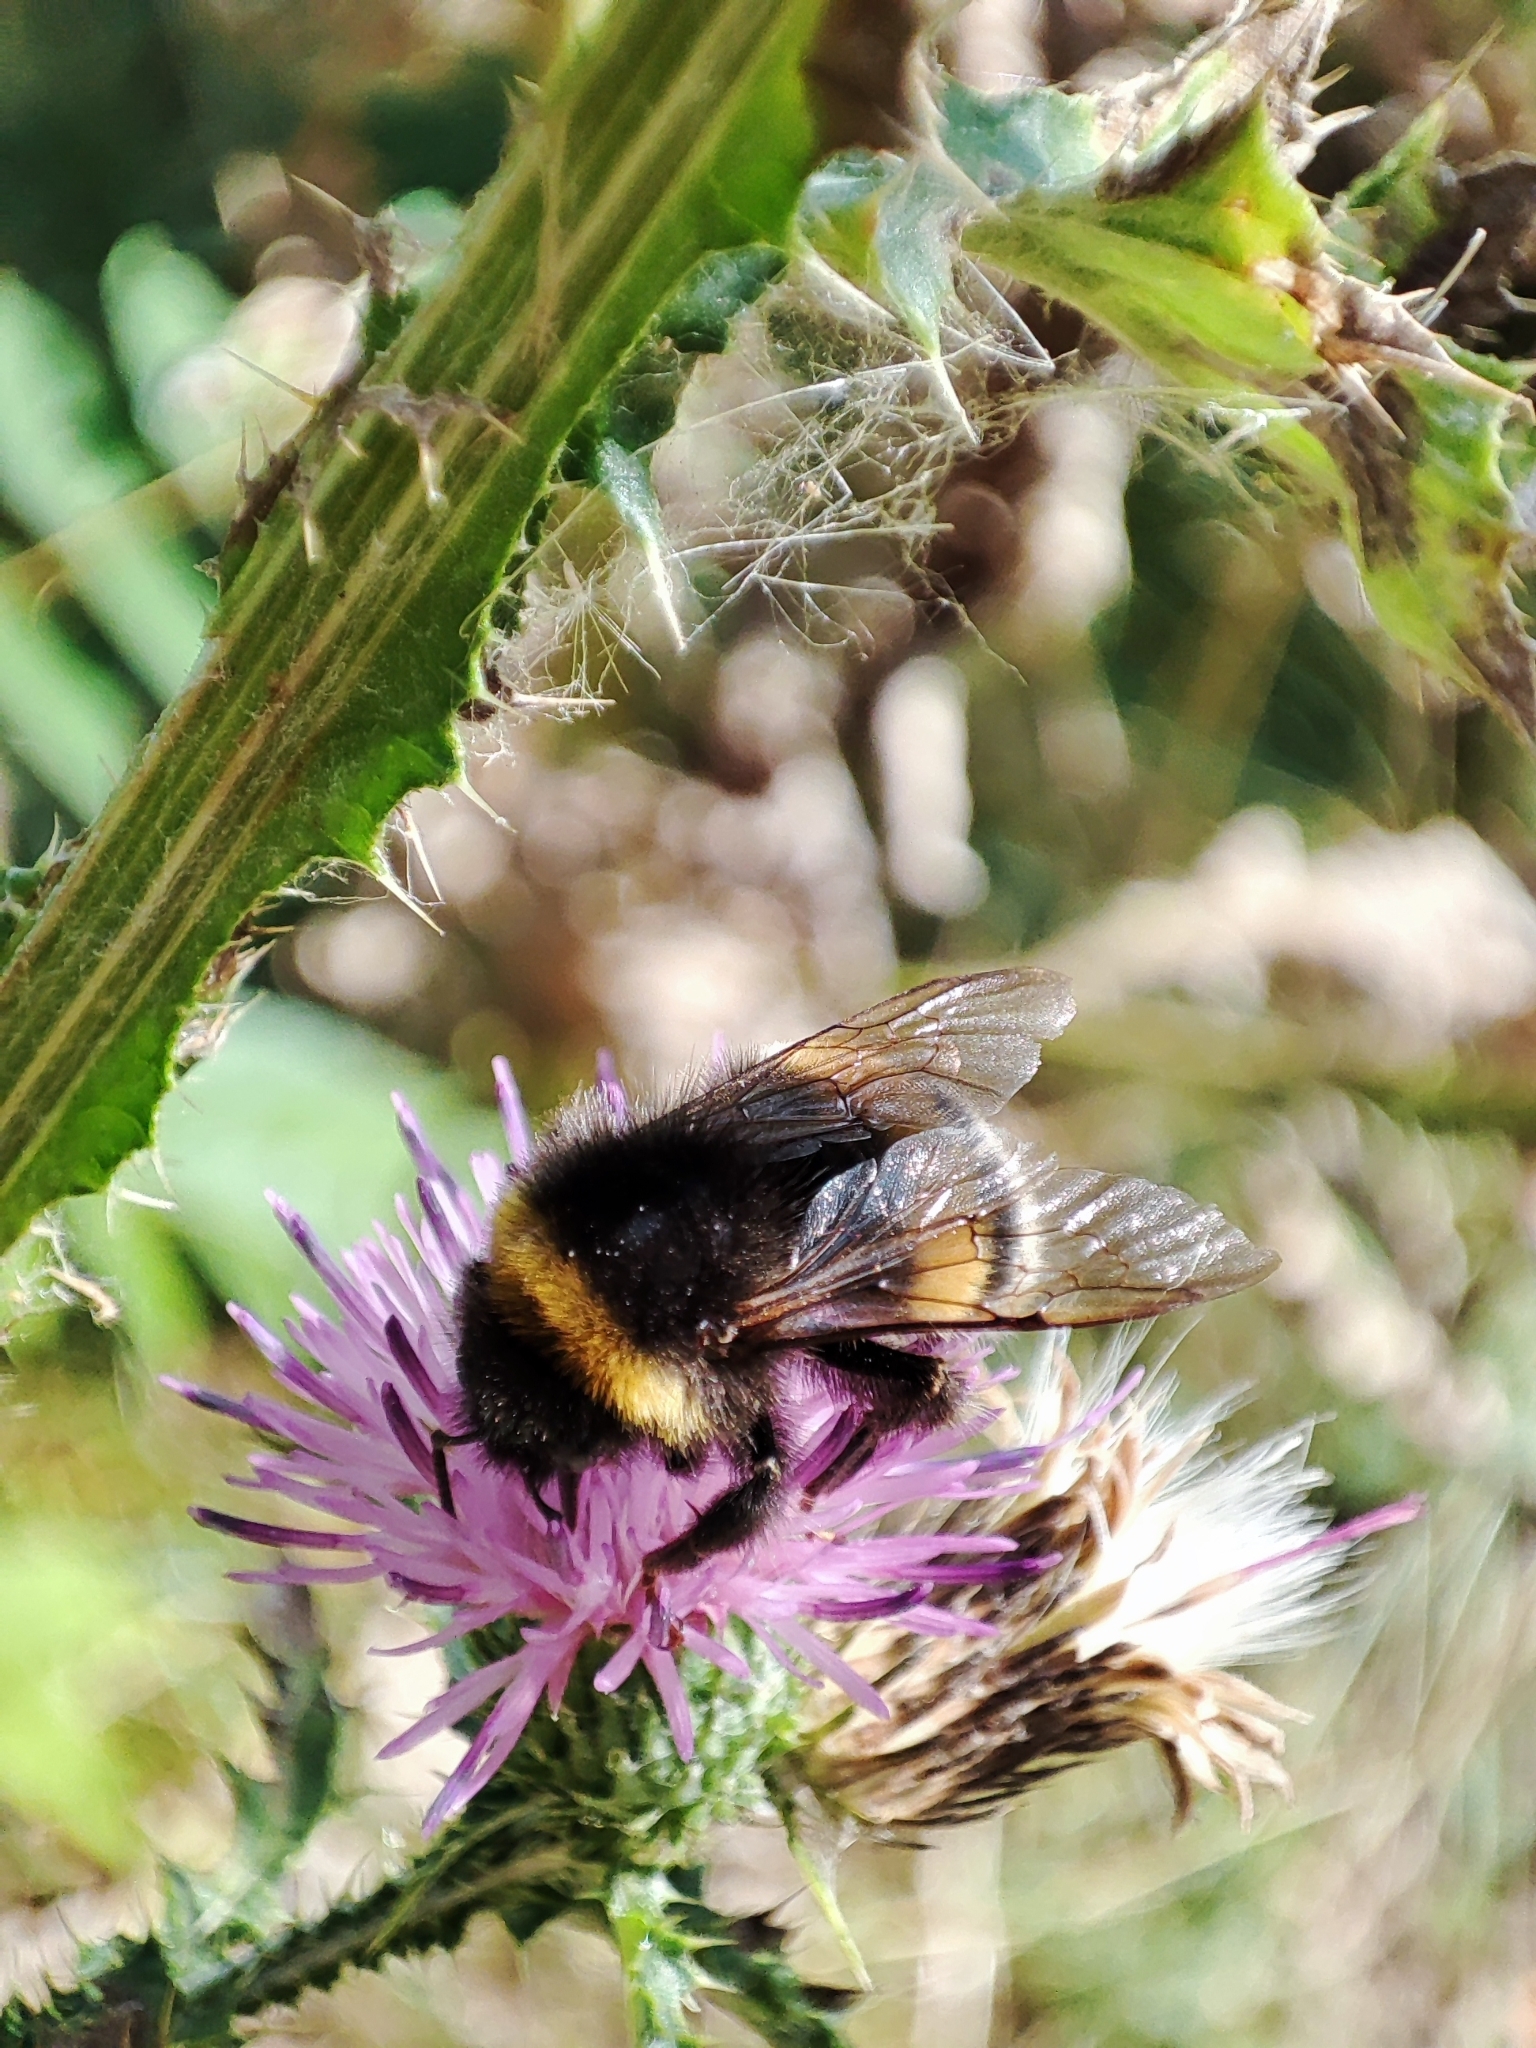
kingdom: Animalia
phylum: Arthropoda
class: Insecta
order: Hymenoptera
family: Apidae
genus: Bombus
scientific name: Bombus
